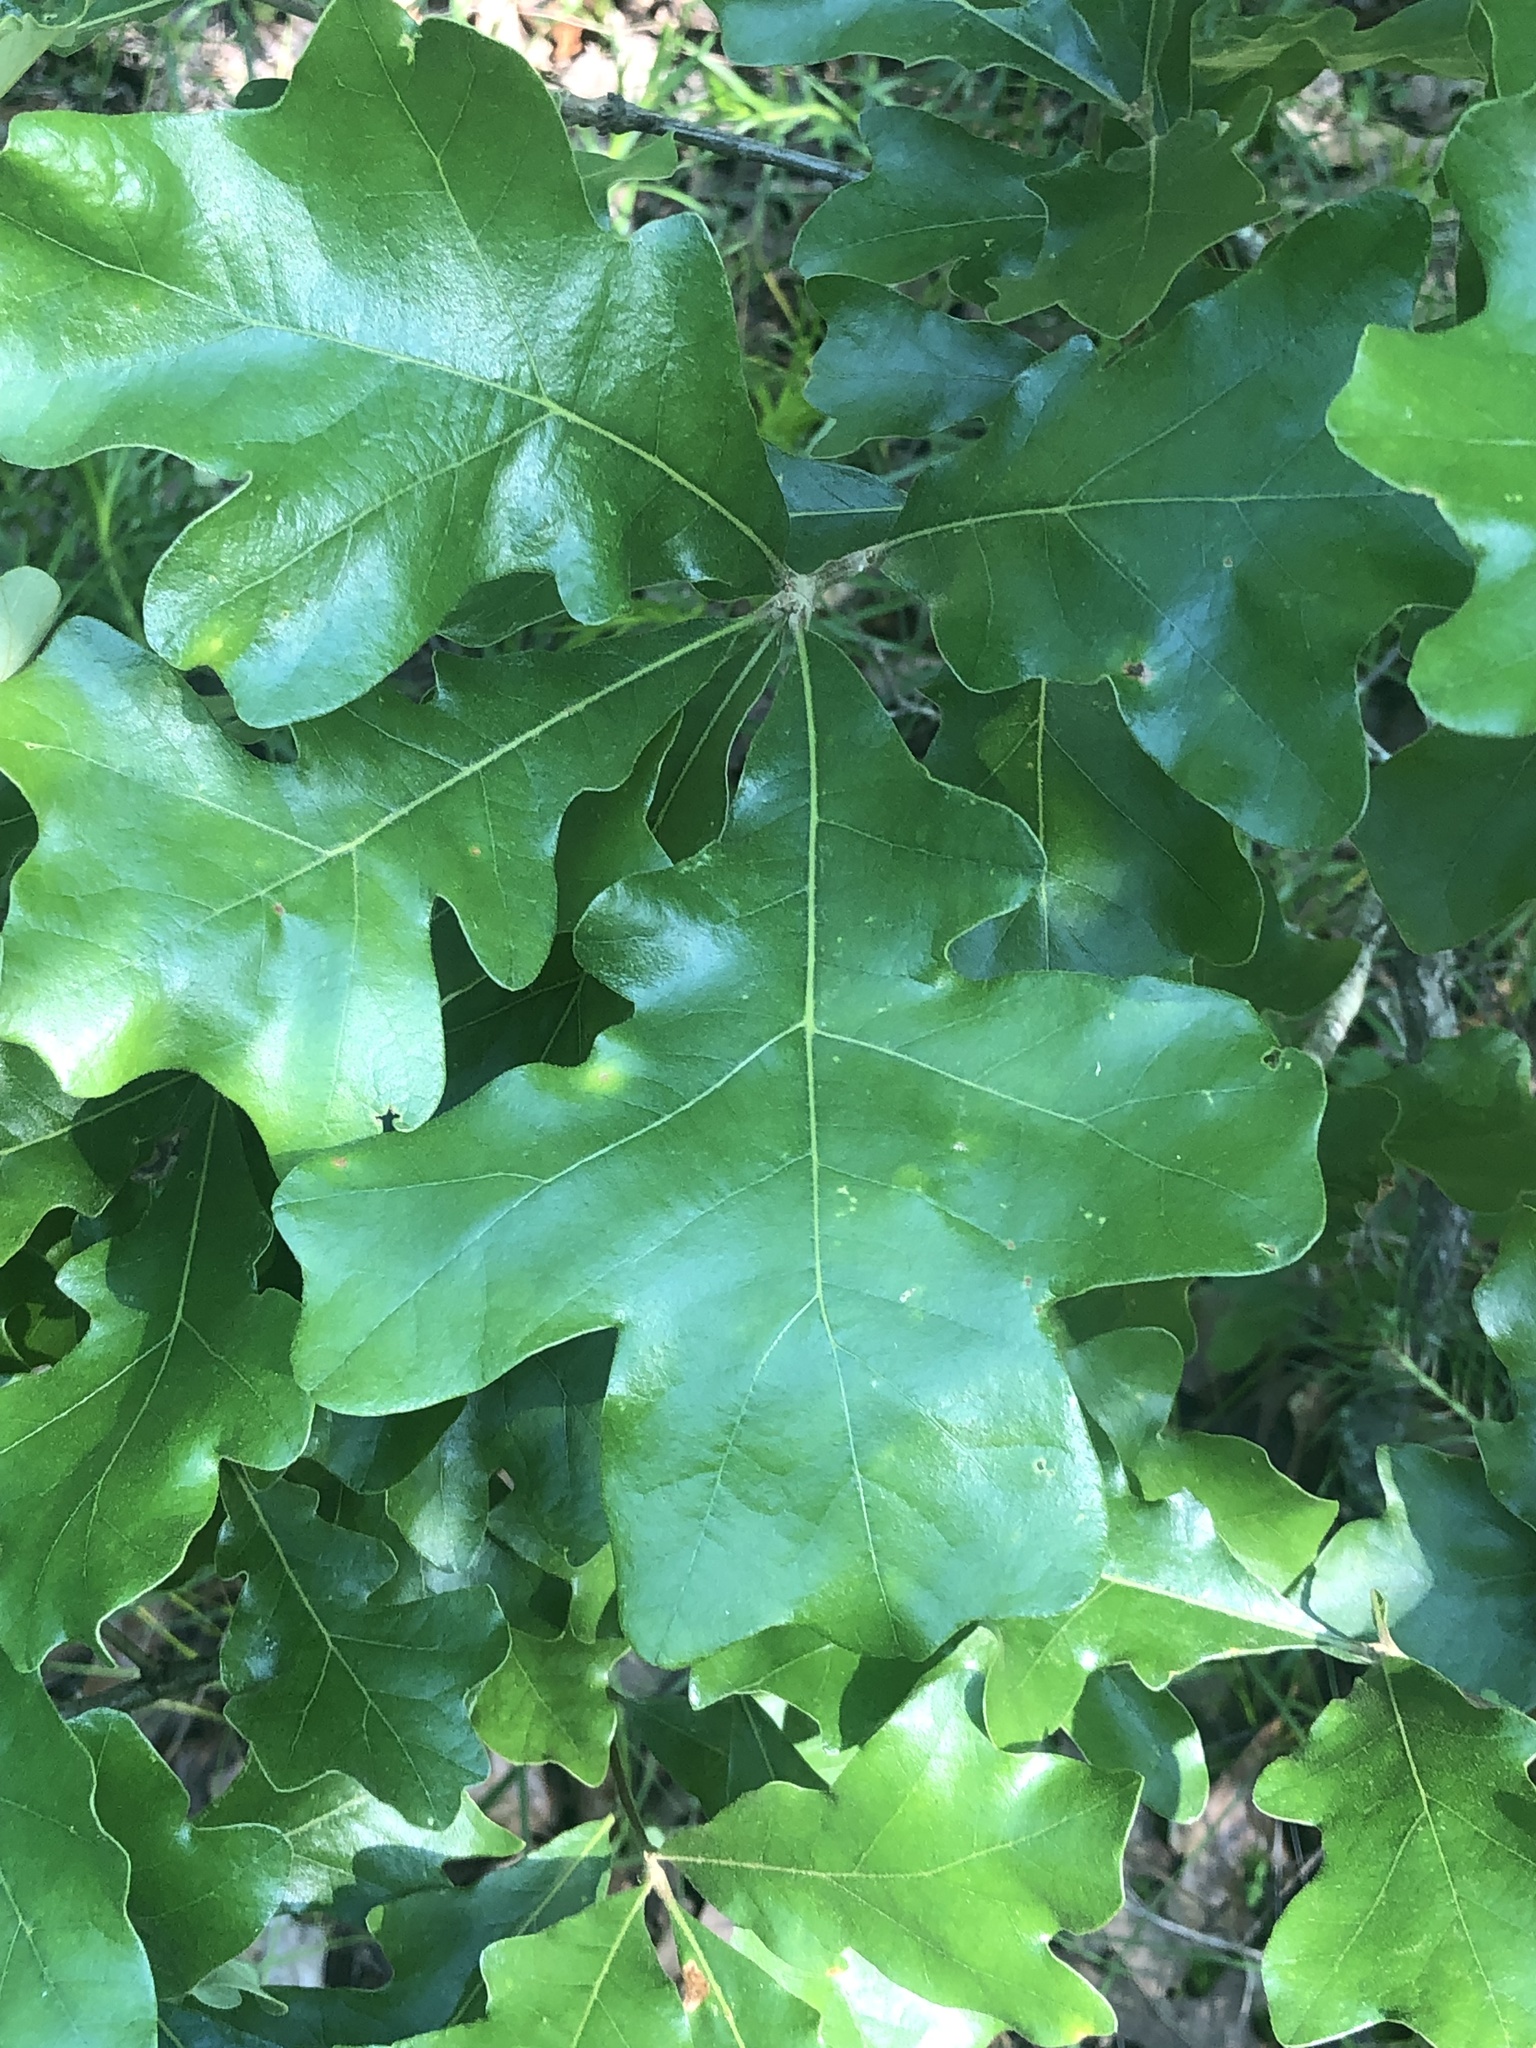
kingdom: Plantae
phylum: Tracheophyta
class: Magnoliopsida
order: Fagales
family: Fagaceae
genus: Quercus
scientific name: Quercus stellata
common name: Post oak
